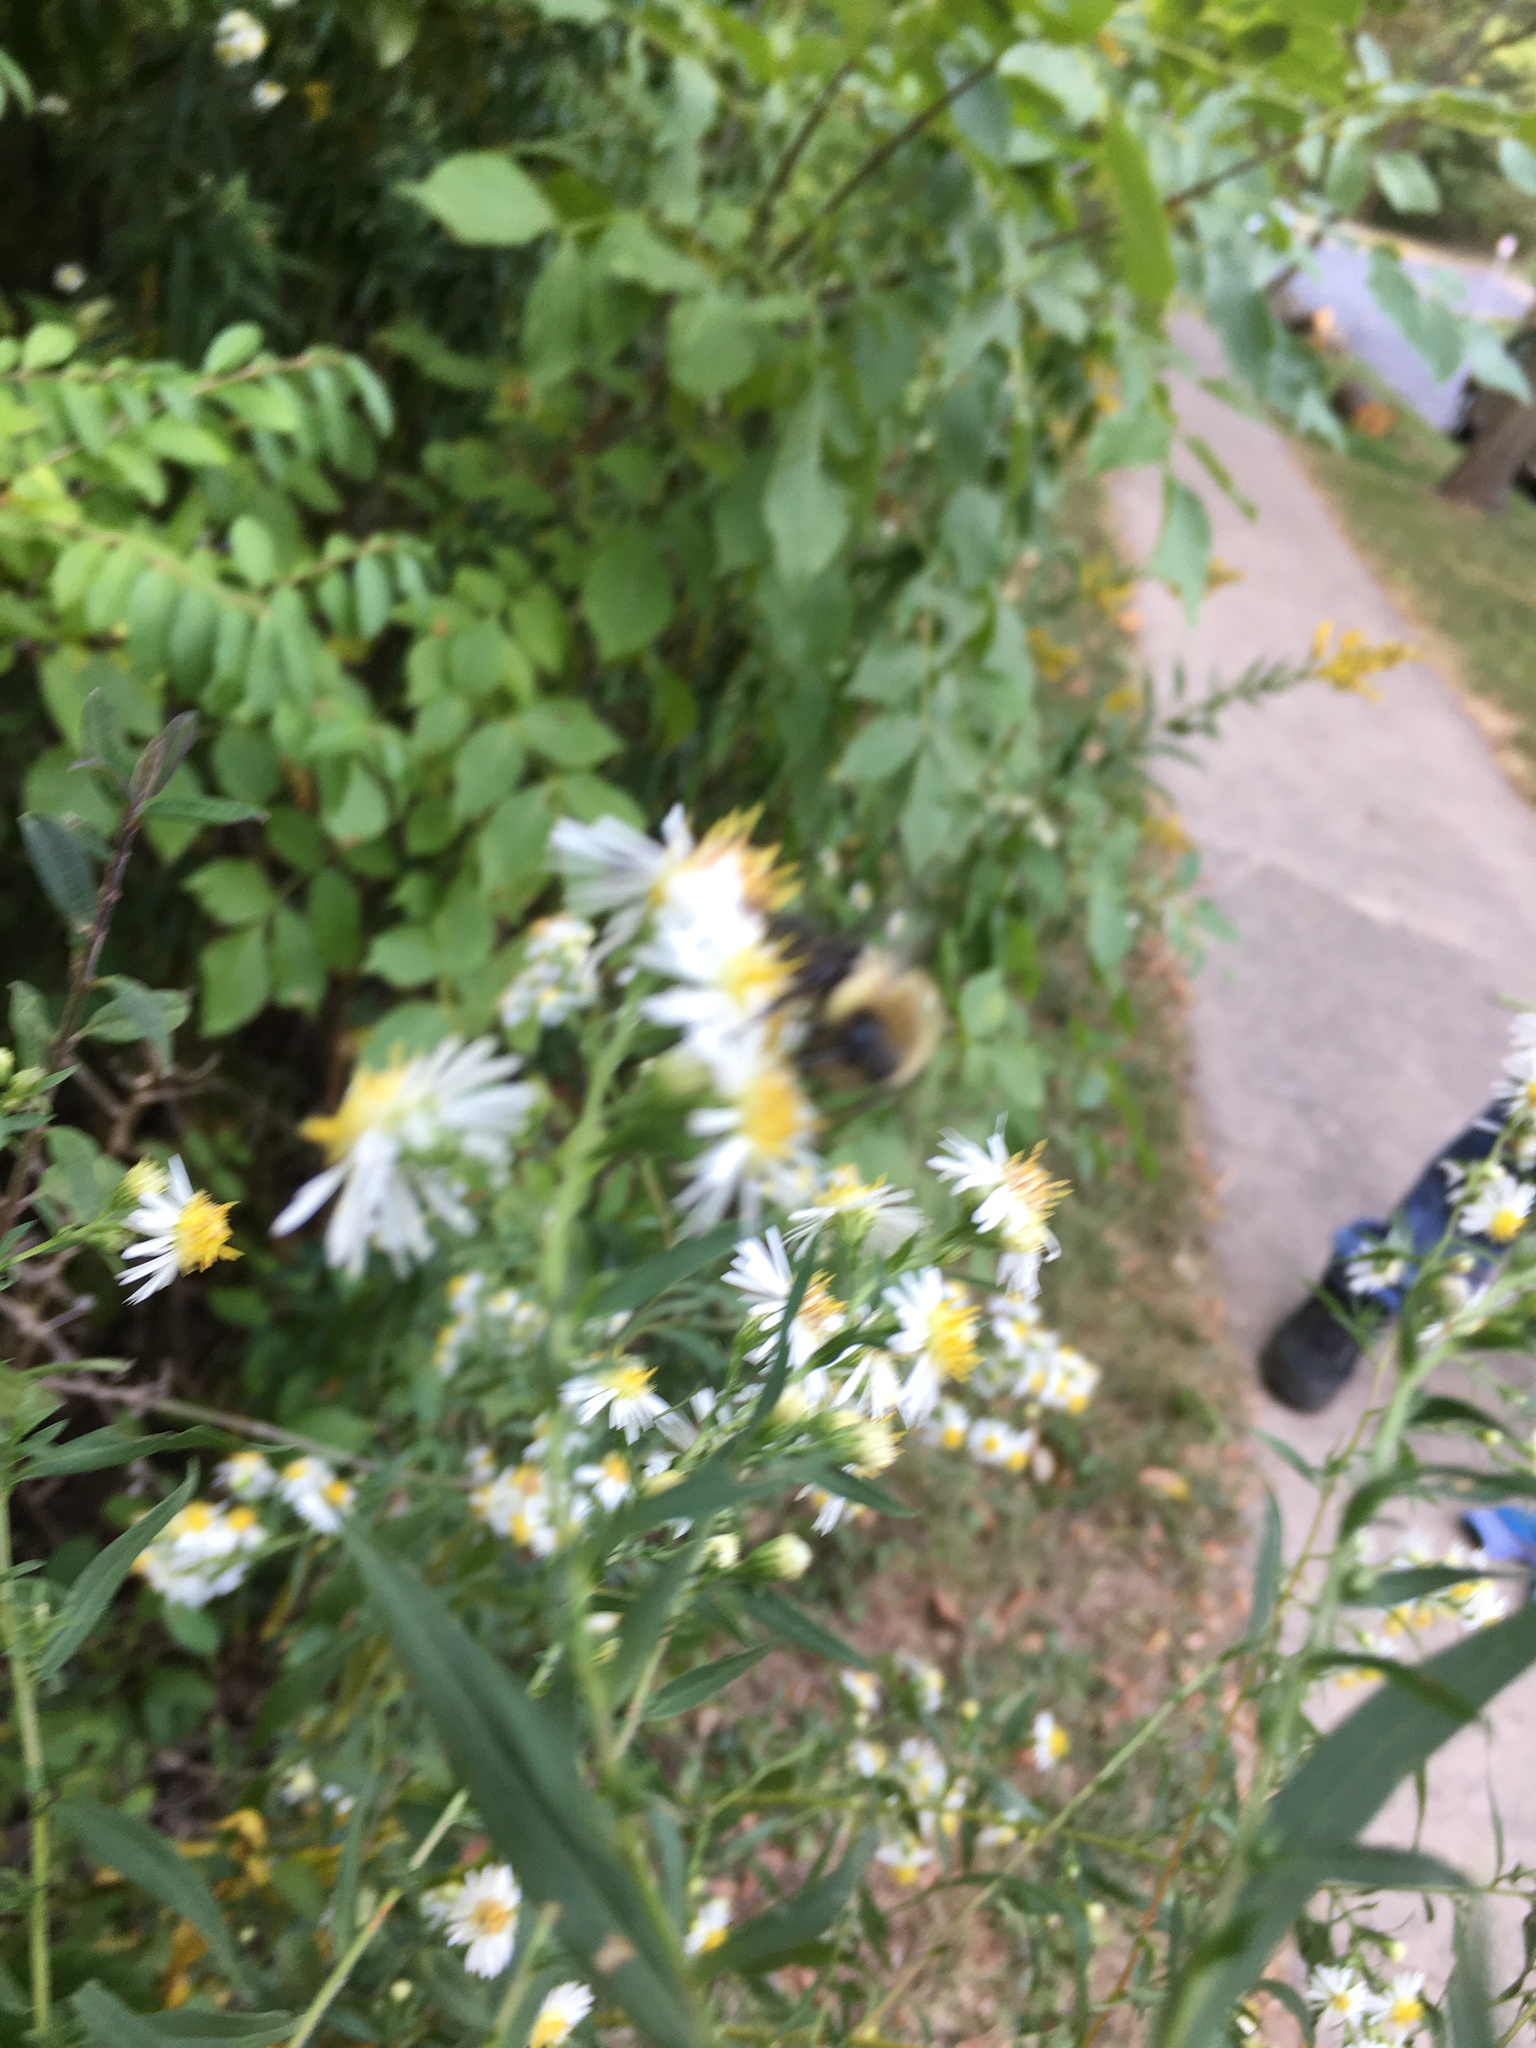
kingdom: Animalia
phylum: Arthropoda
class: Insecta
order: Hymenoptera
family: Apidae
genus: Bombus
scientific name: Bombus impatiens
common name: Common eastern bumble bee
